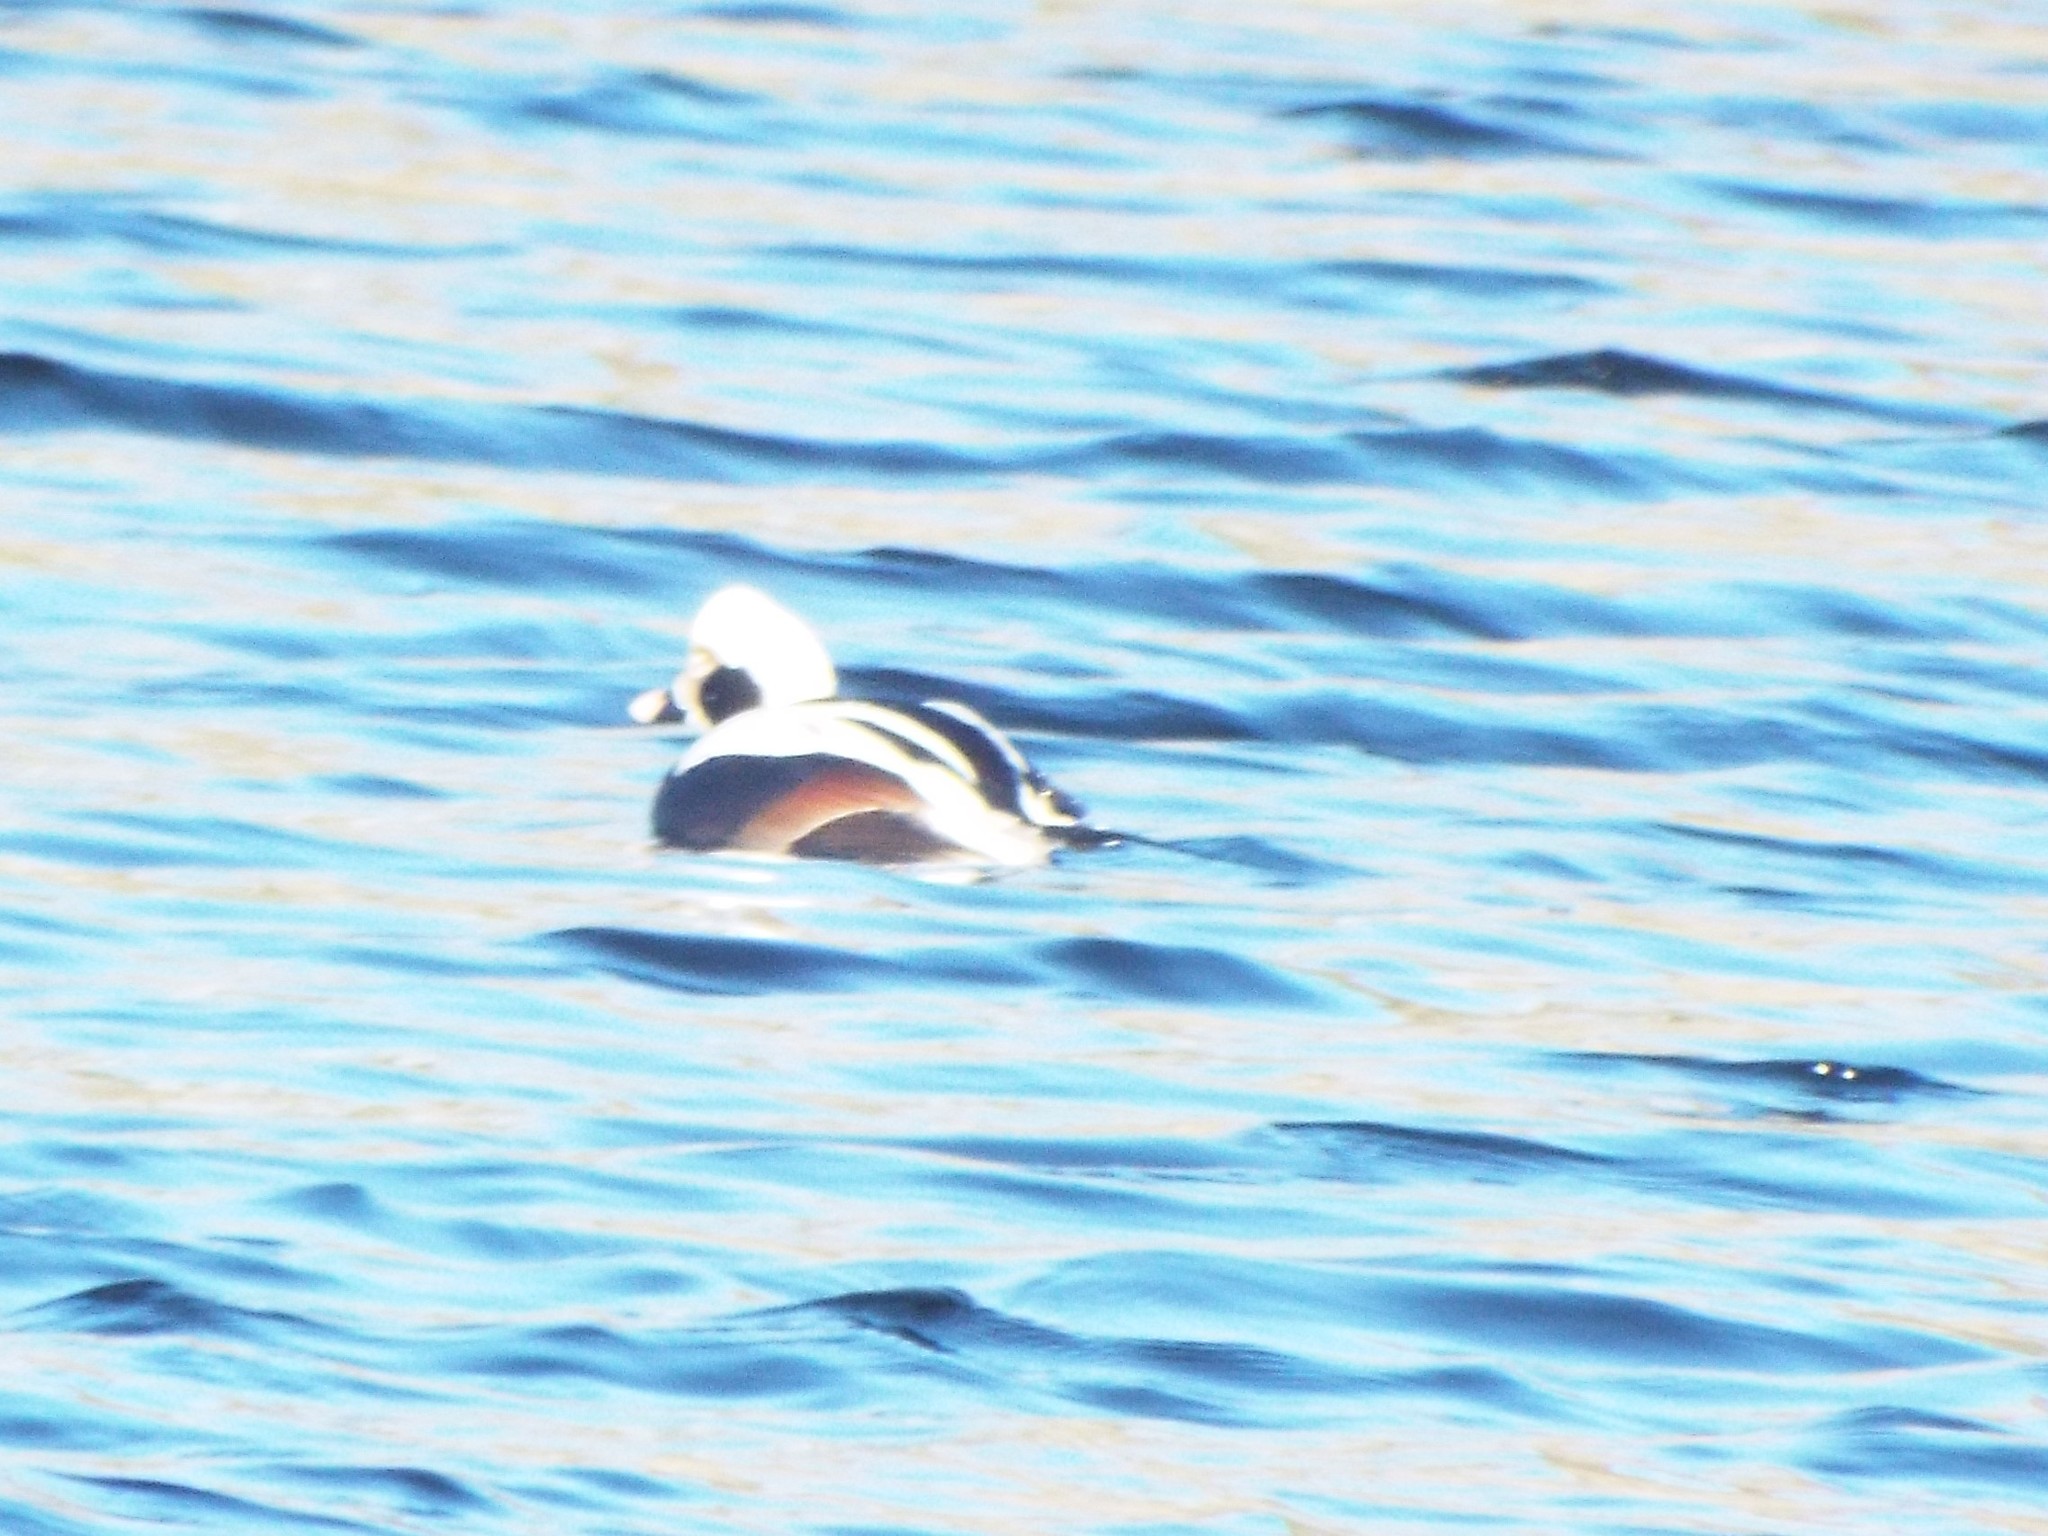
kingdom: Animalia
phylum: Chordata
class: Aves
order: Anseriformes
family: Anatidae
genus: Clangula
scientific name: Clangula hyemalis
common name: Long-tailed duck
